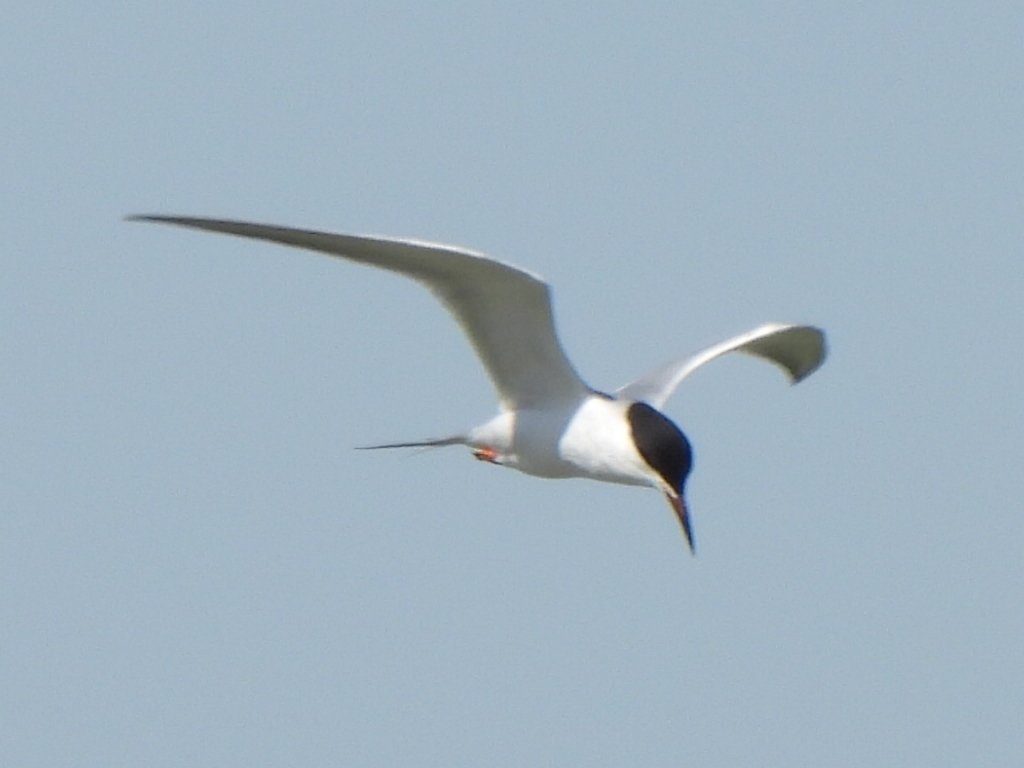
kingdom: Animalia
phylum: Chordata
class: Aves
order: Charadriiformes
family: Laridae
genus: Sterna
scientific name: Sterna forsteri
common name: Forster's tern
